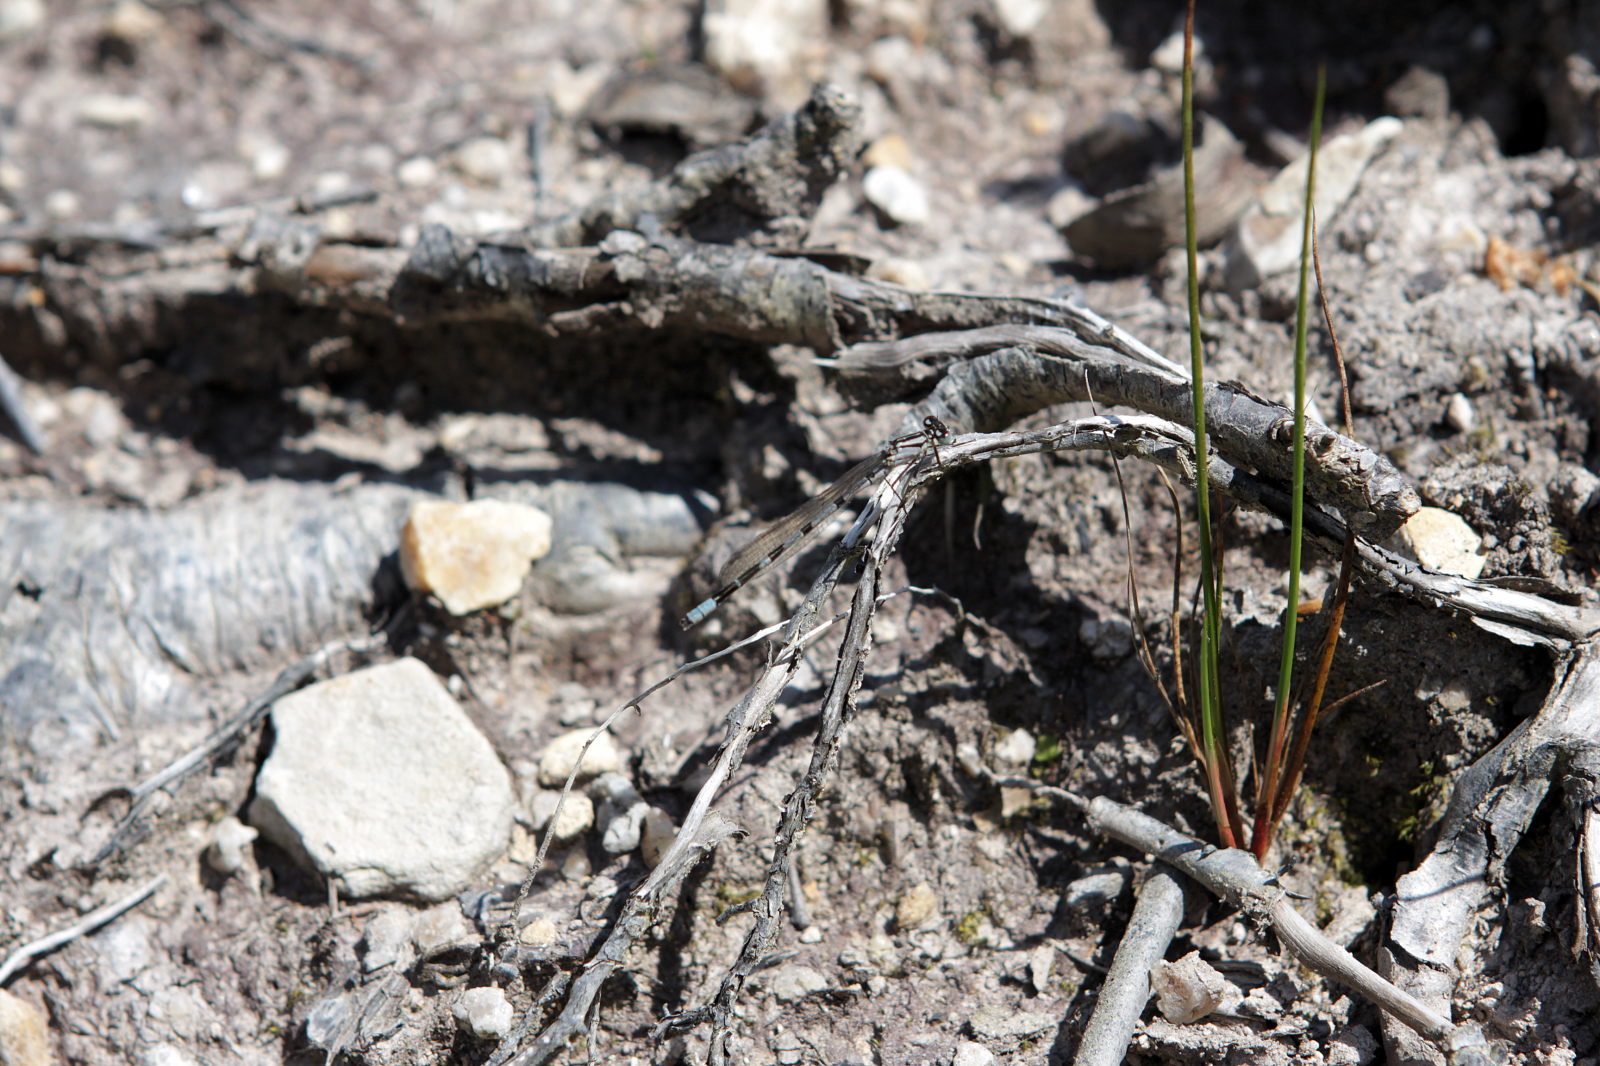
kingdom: Animalia
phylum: Arthropoda
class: Insecta
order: Odonata
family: Coenagrionidae
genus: Enallagma
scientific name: Enallagma cyathigerum
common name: Common blue damselfly
